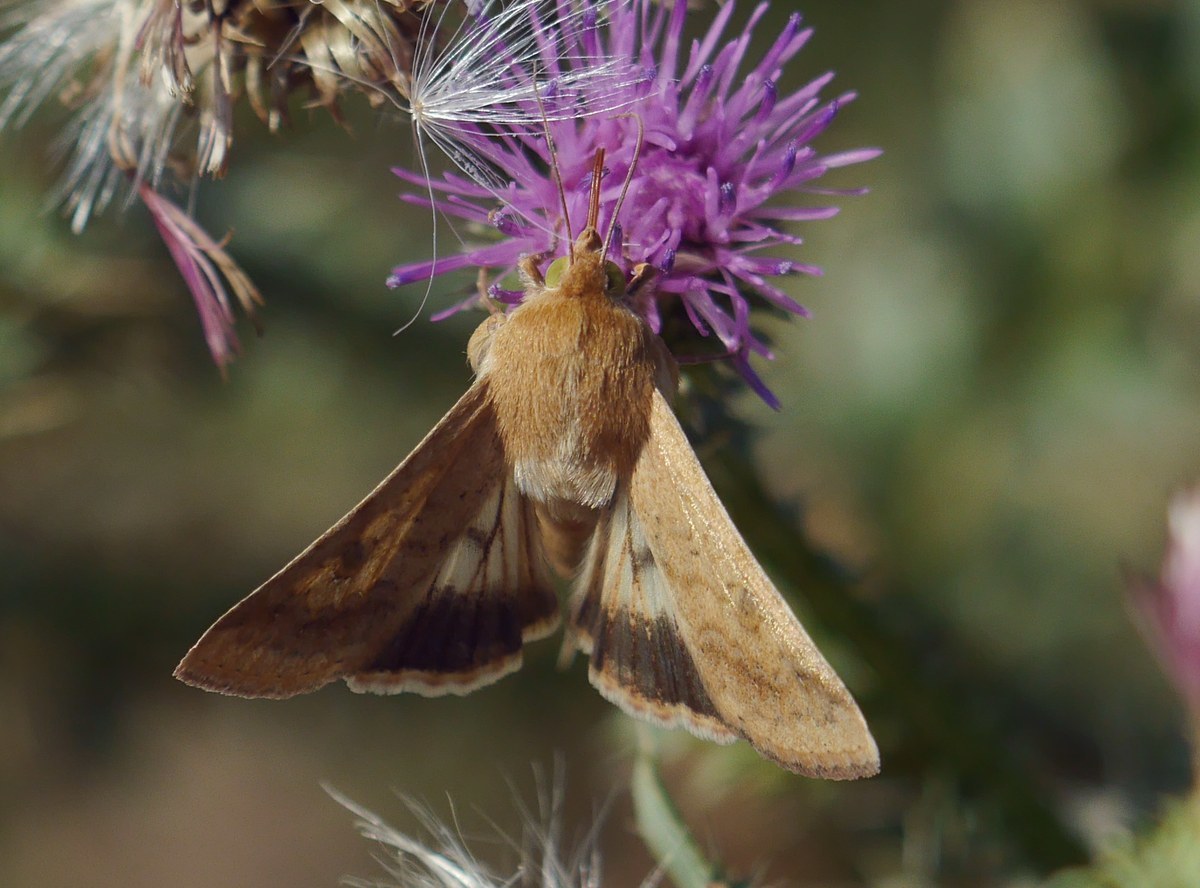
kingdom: Animalia
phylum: Arthropoda
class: Insecta
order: Lepidoptera
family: Noctuidae
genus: Helicoverpa
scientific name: Helicoverpa armigera
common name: Cotton bollworm
